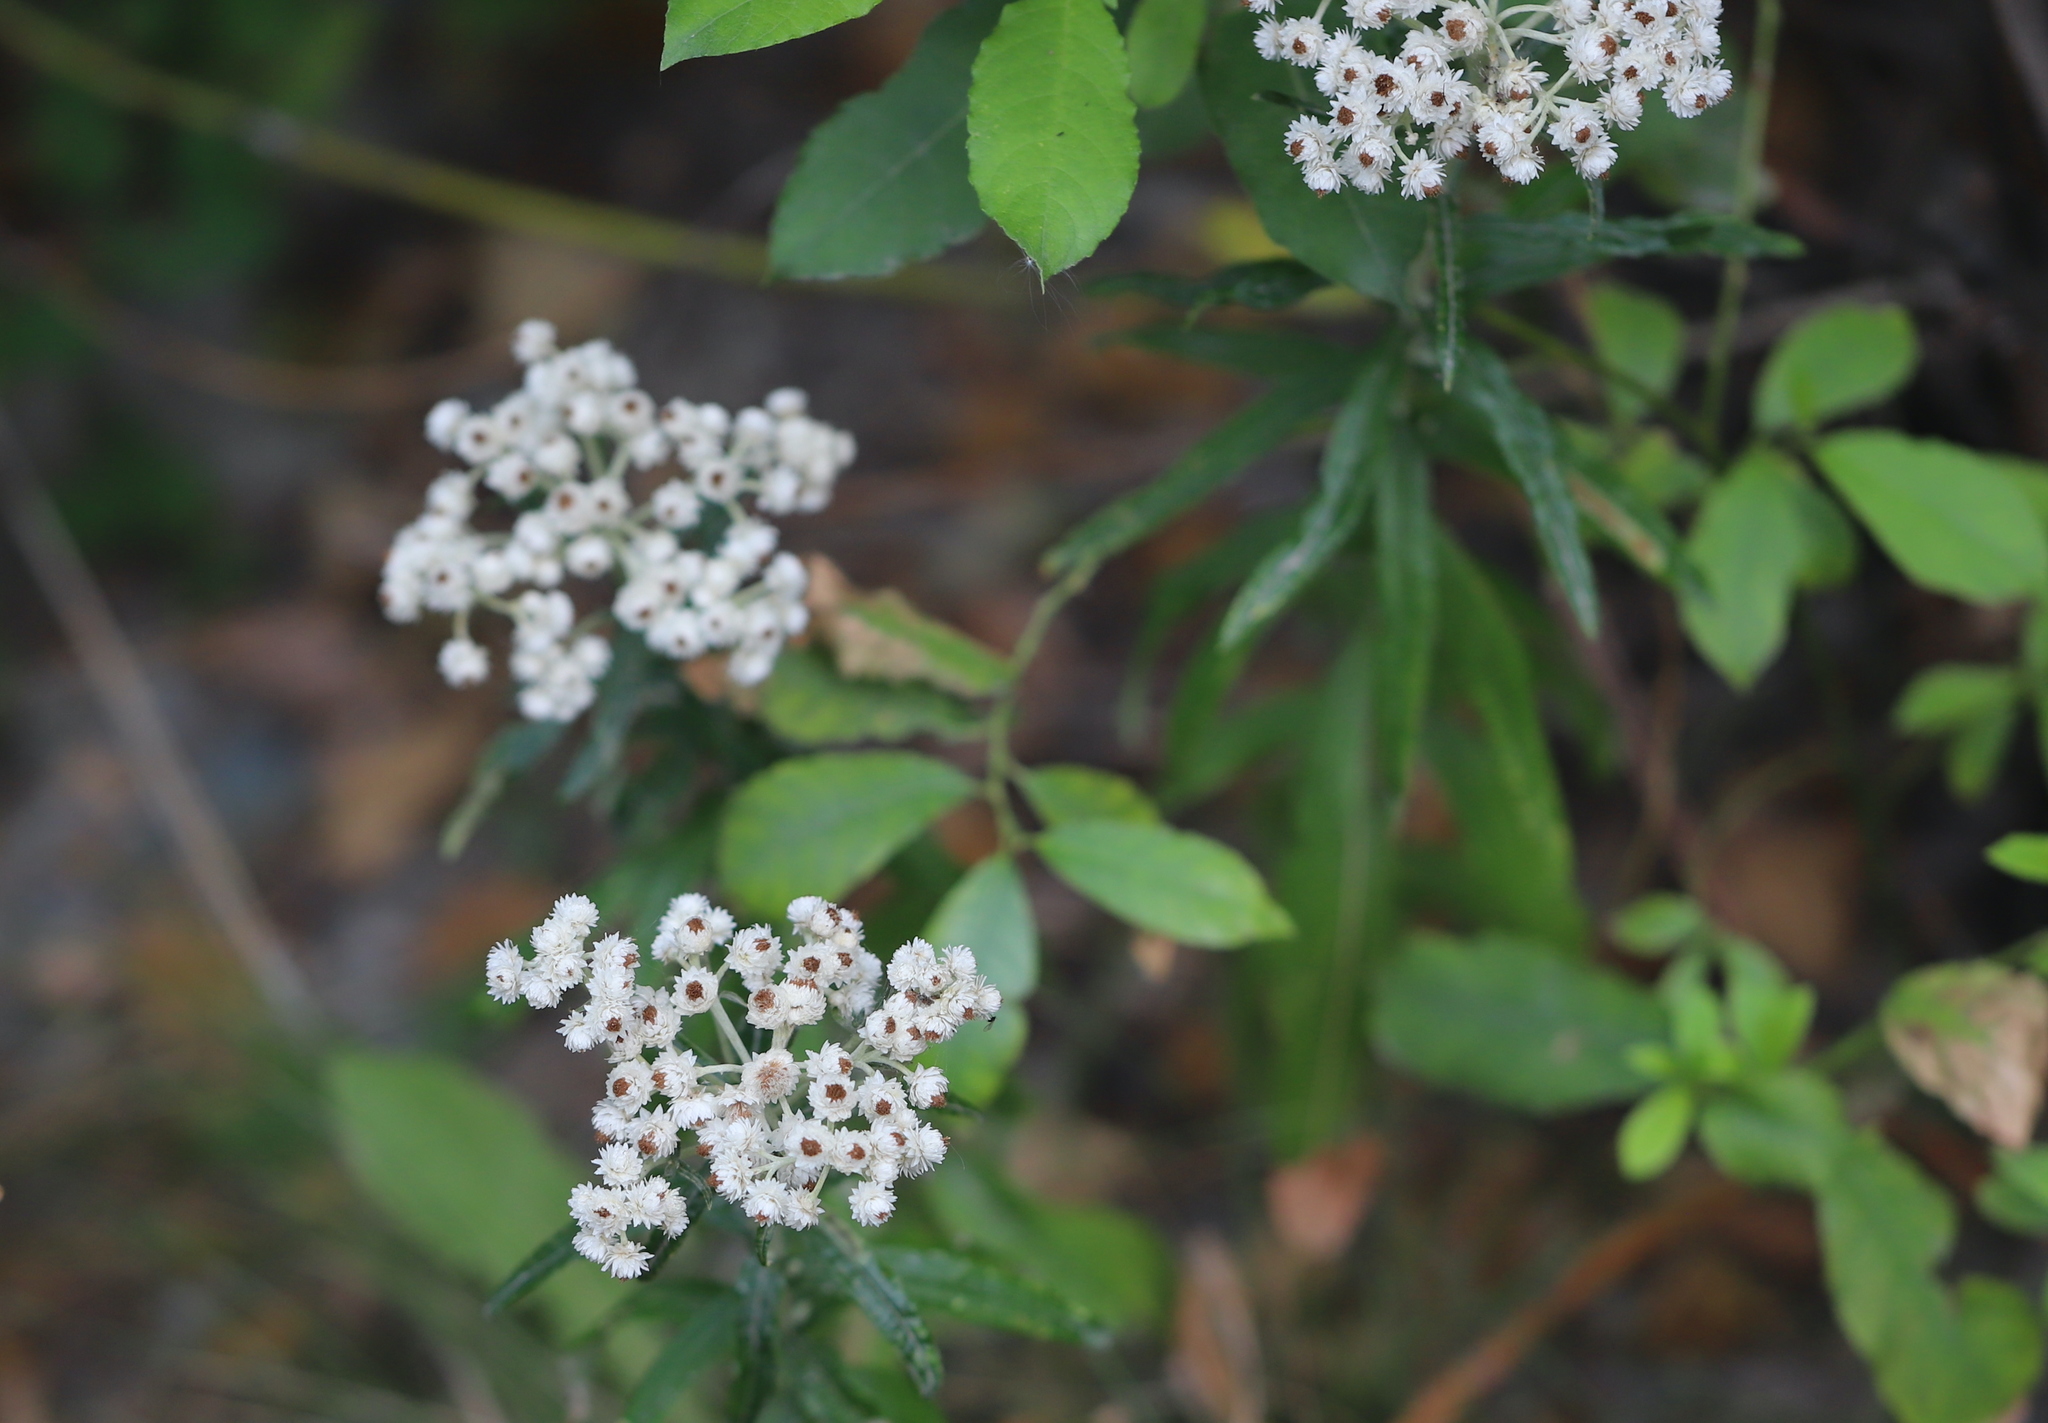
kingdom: Plantae
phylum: Tracheophyta
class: Magnoliopsida
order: Asterales
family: Asteraceae
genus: Anaphalis
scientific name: Anaphalis margaritacea
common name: Pearly everlasting
